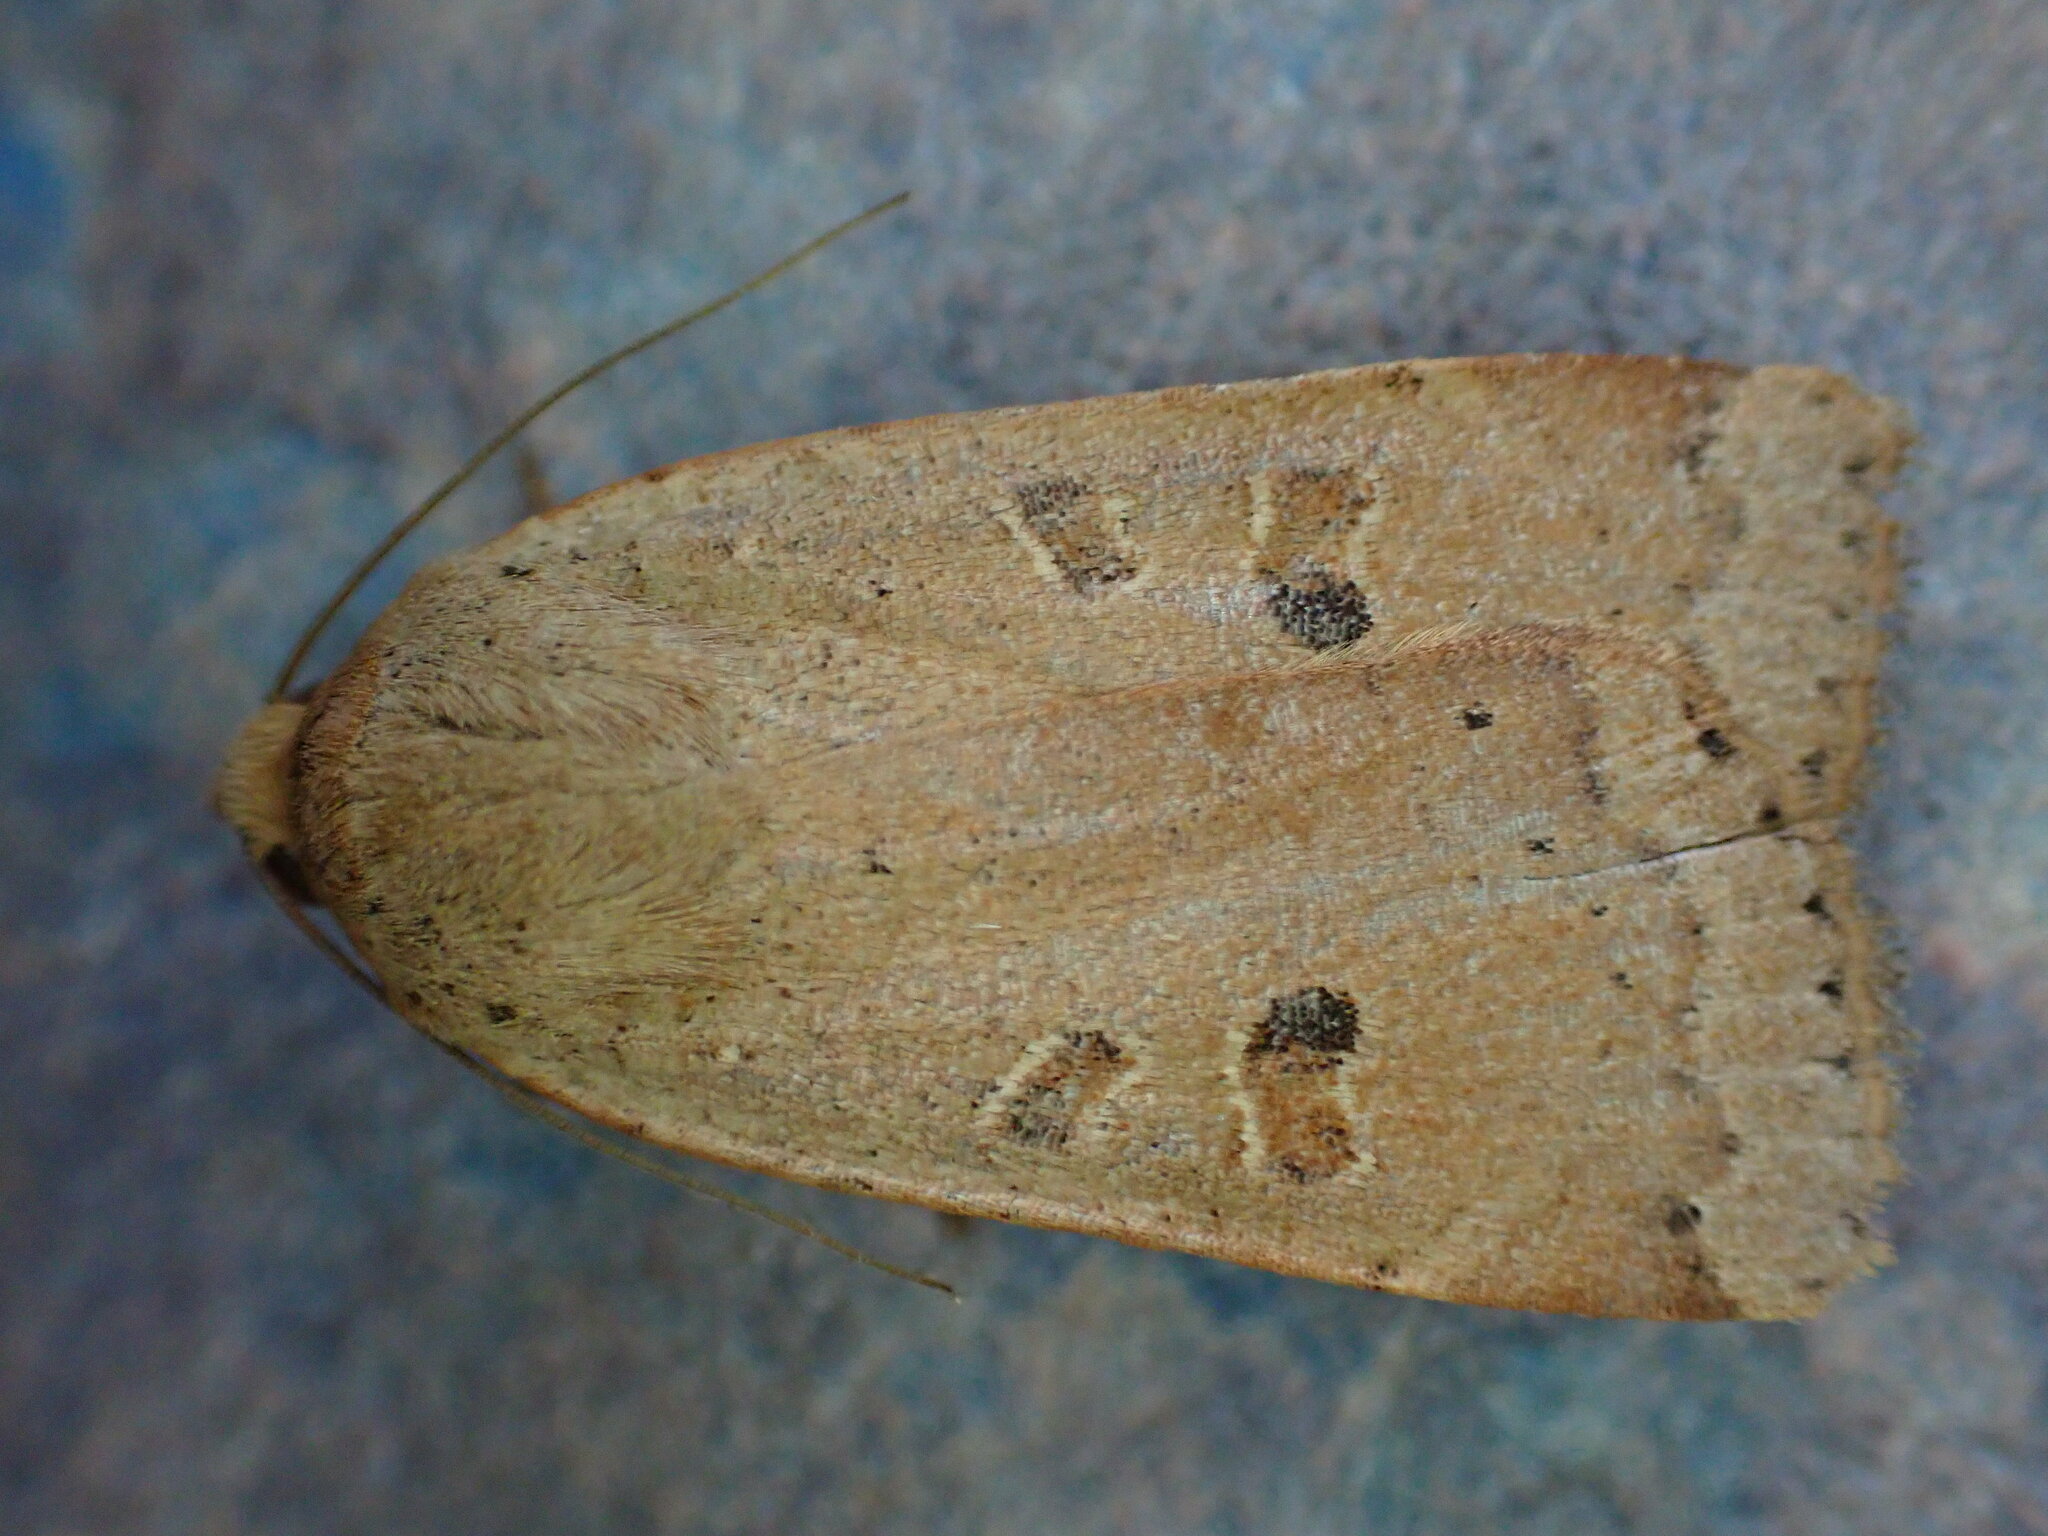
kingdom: Animalia
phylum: Arthropoda
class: Insecta
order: Lepidoptera
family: Noctuidae
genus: Noctua
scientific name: Noctua comes
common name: Lesser yellow underwing
